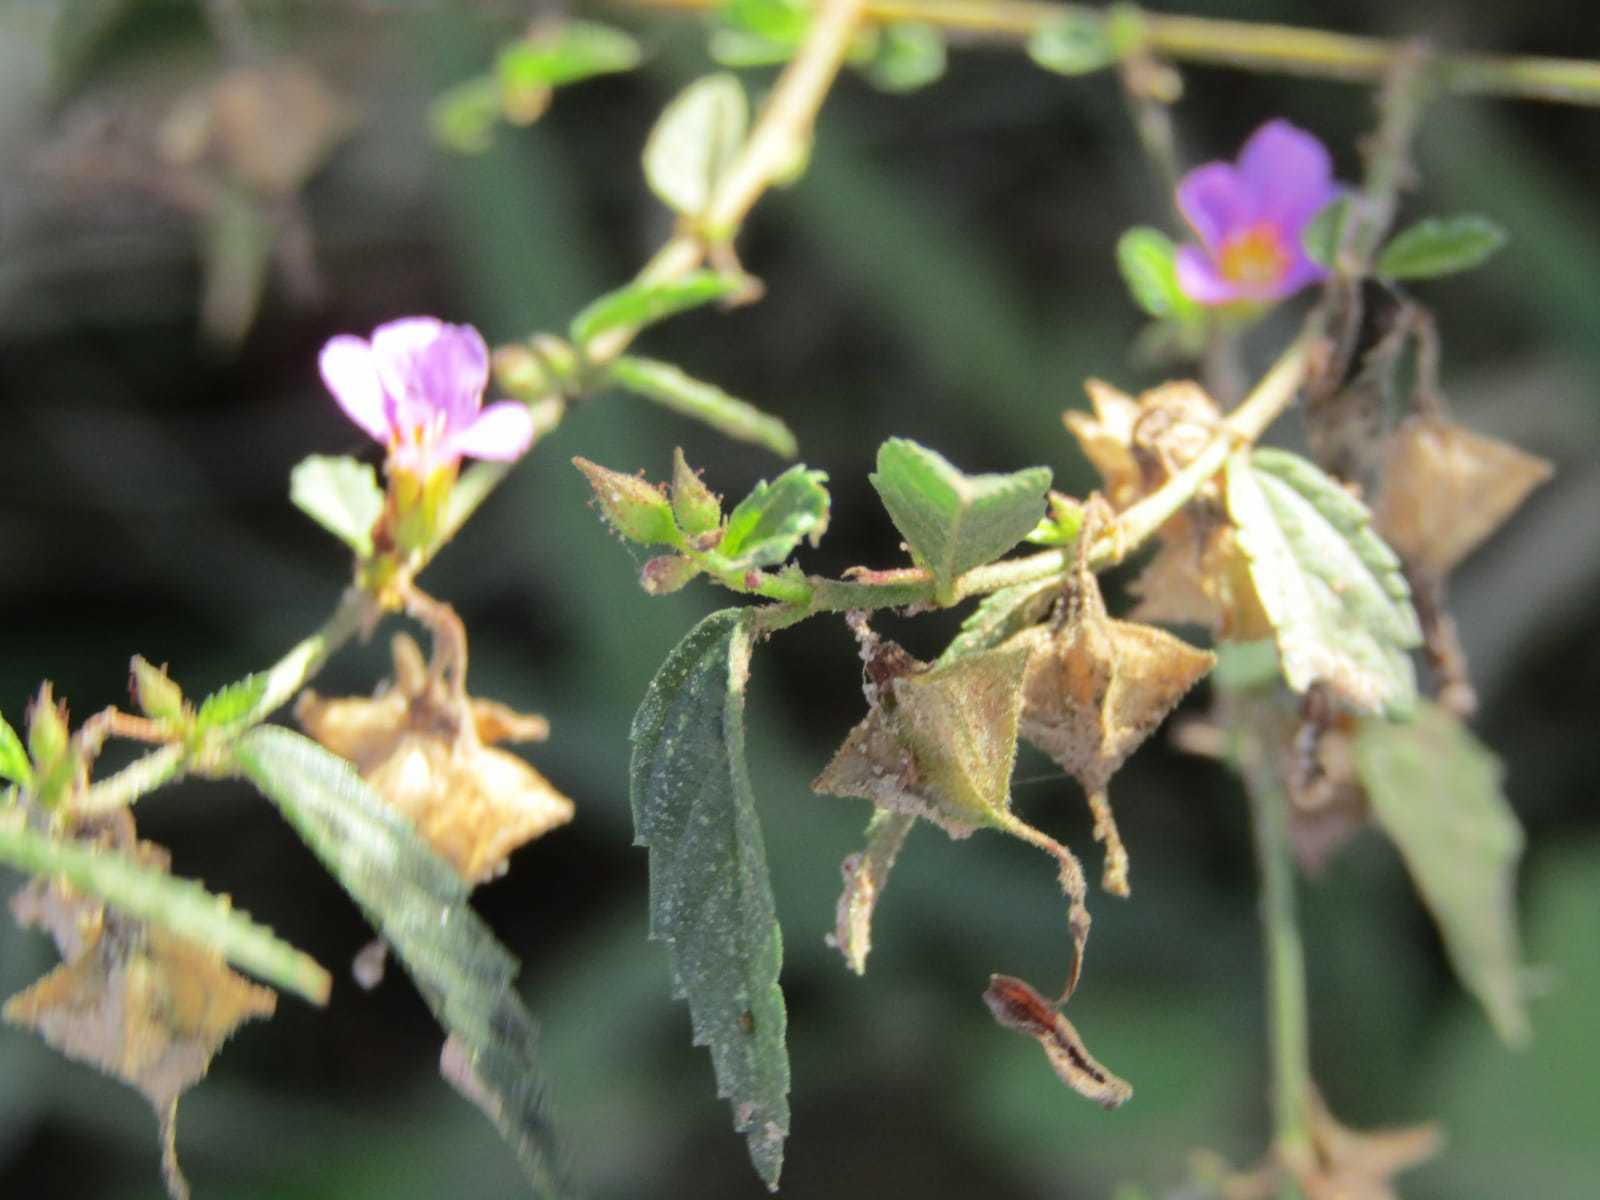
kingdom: Plantae
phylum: Tracheophyta
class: Magnoliopsida
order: Malvales
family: Malvaceae
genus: Melochia
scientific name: Melochia pyramidata
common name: Pyramidflower
